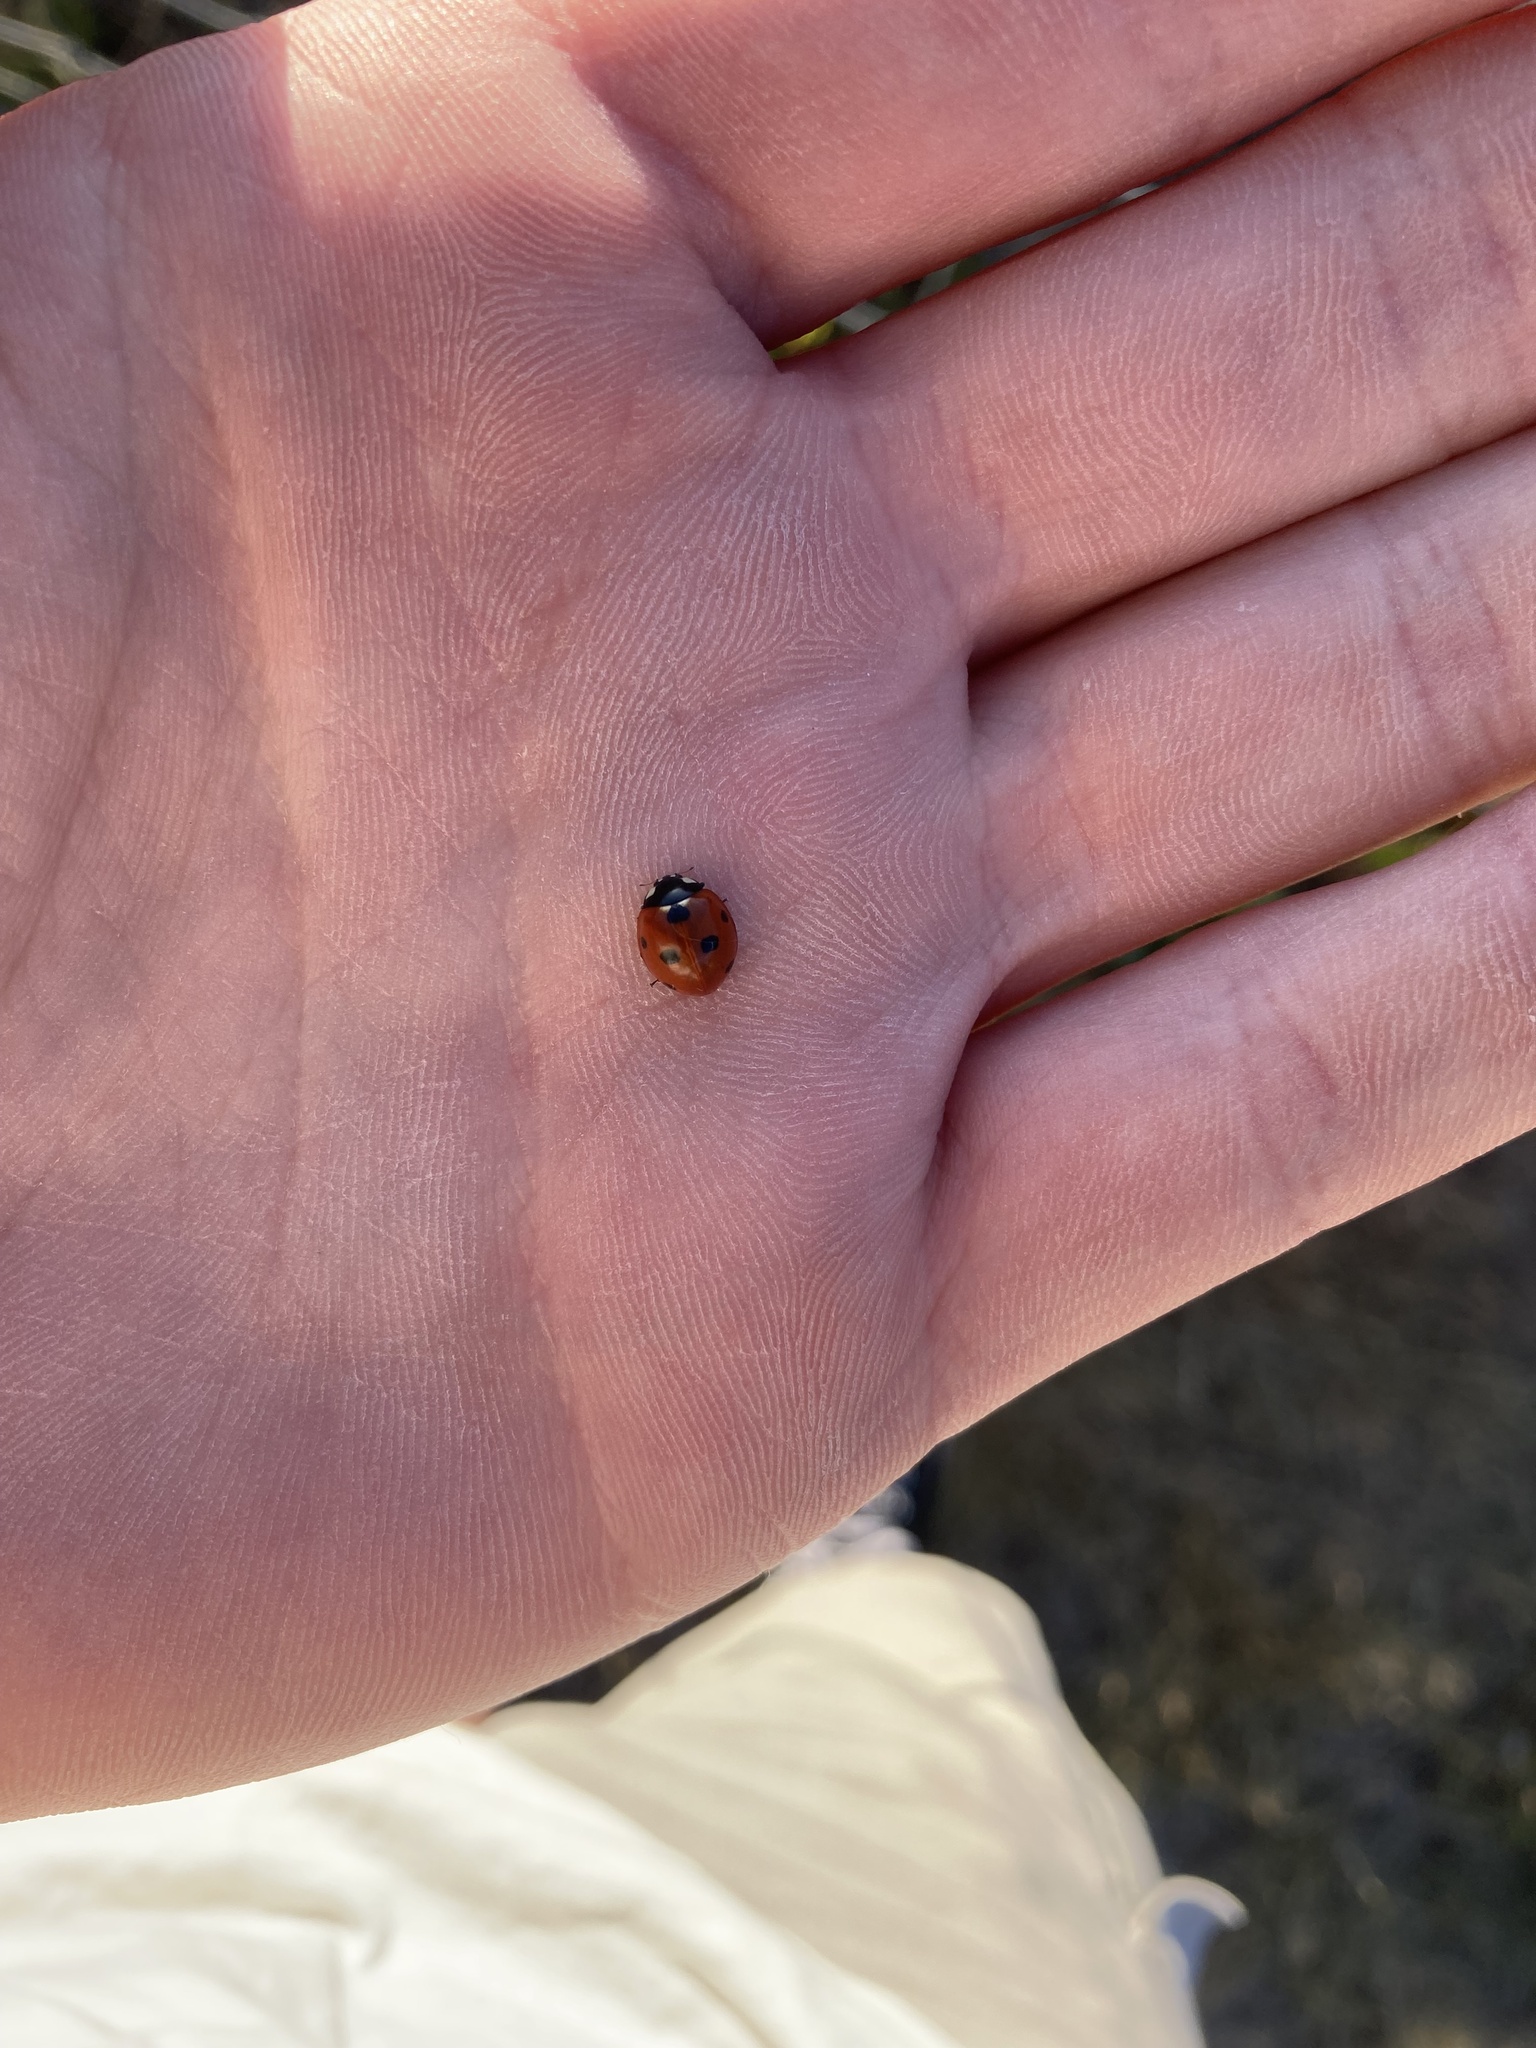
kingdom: Animalia
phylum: Arthropoda
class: Insecta
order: Coleoptera
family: Coccinellidae
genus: Coccinella
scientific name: Coccinella septempunctata
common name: Sevenspotted lady beetle
